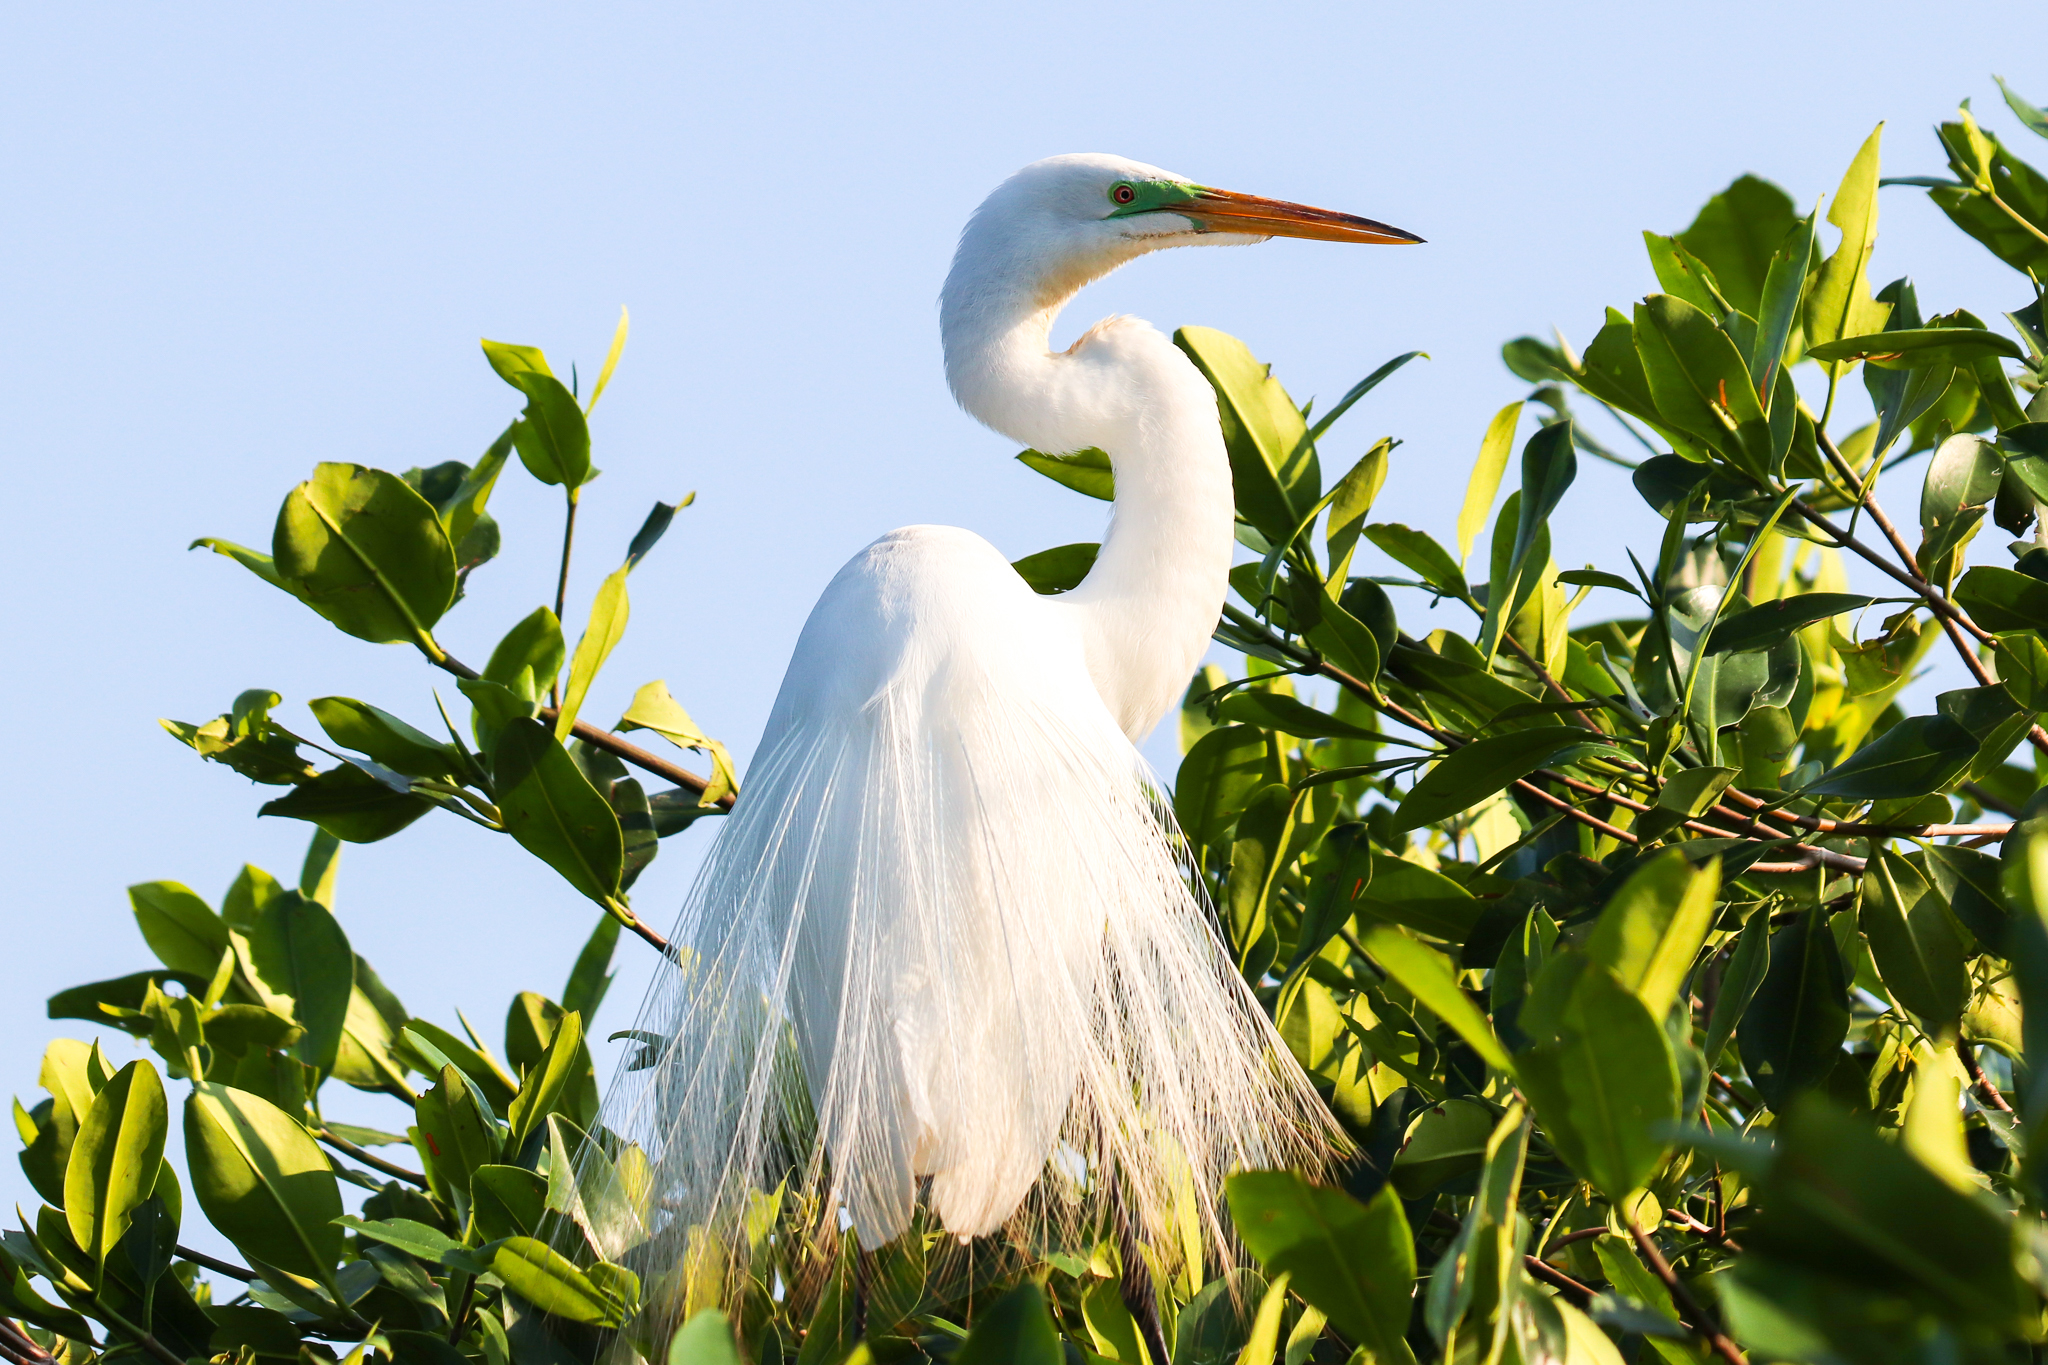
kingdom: Animalia
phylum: Chordata
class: Aves
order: Pelecaniformes
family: Ardeidae
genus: Ardea
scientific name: Ardea alba
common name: Great egret
